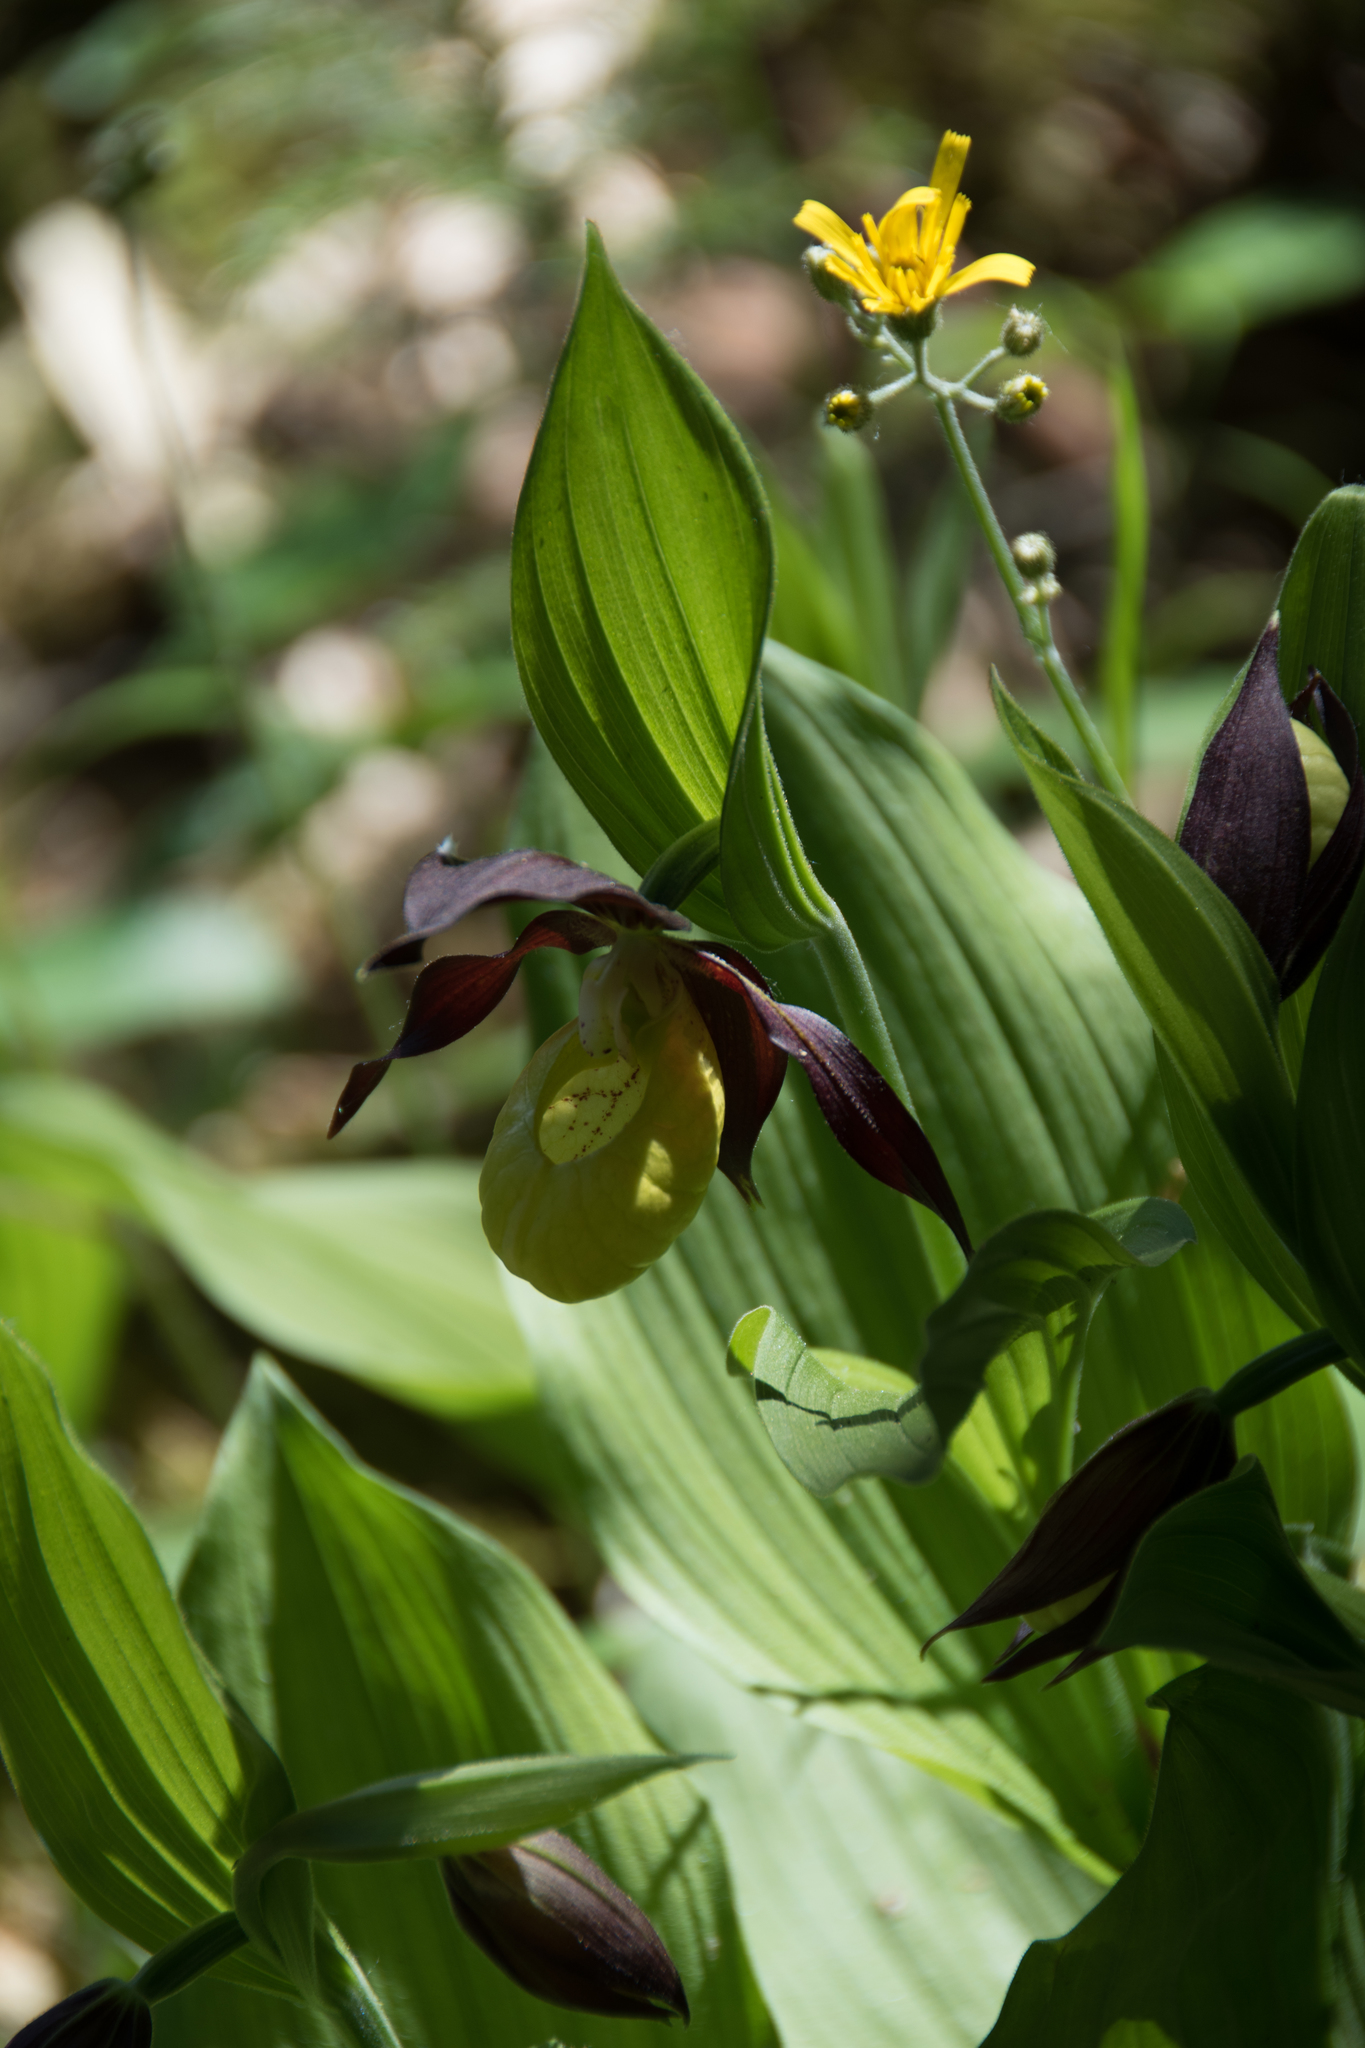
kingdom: Plantae
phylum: Tracheophyta
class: Liliopsida
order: Asparagales
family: Orchidaceae
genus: Cypripedium
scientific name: Cypripedium calceolus
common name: Lady's-slipper
